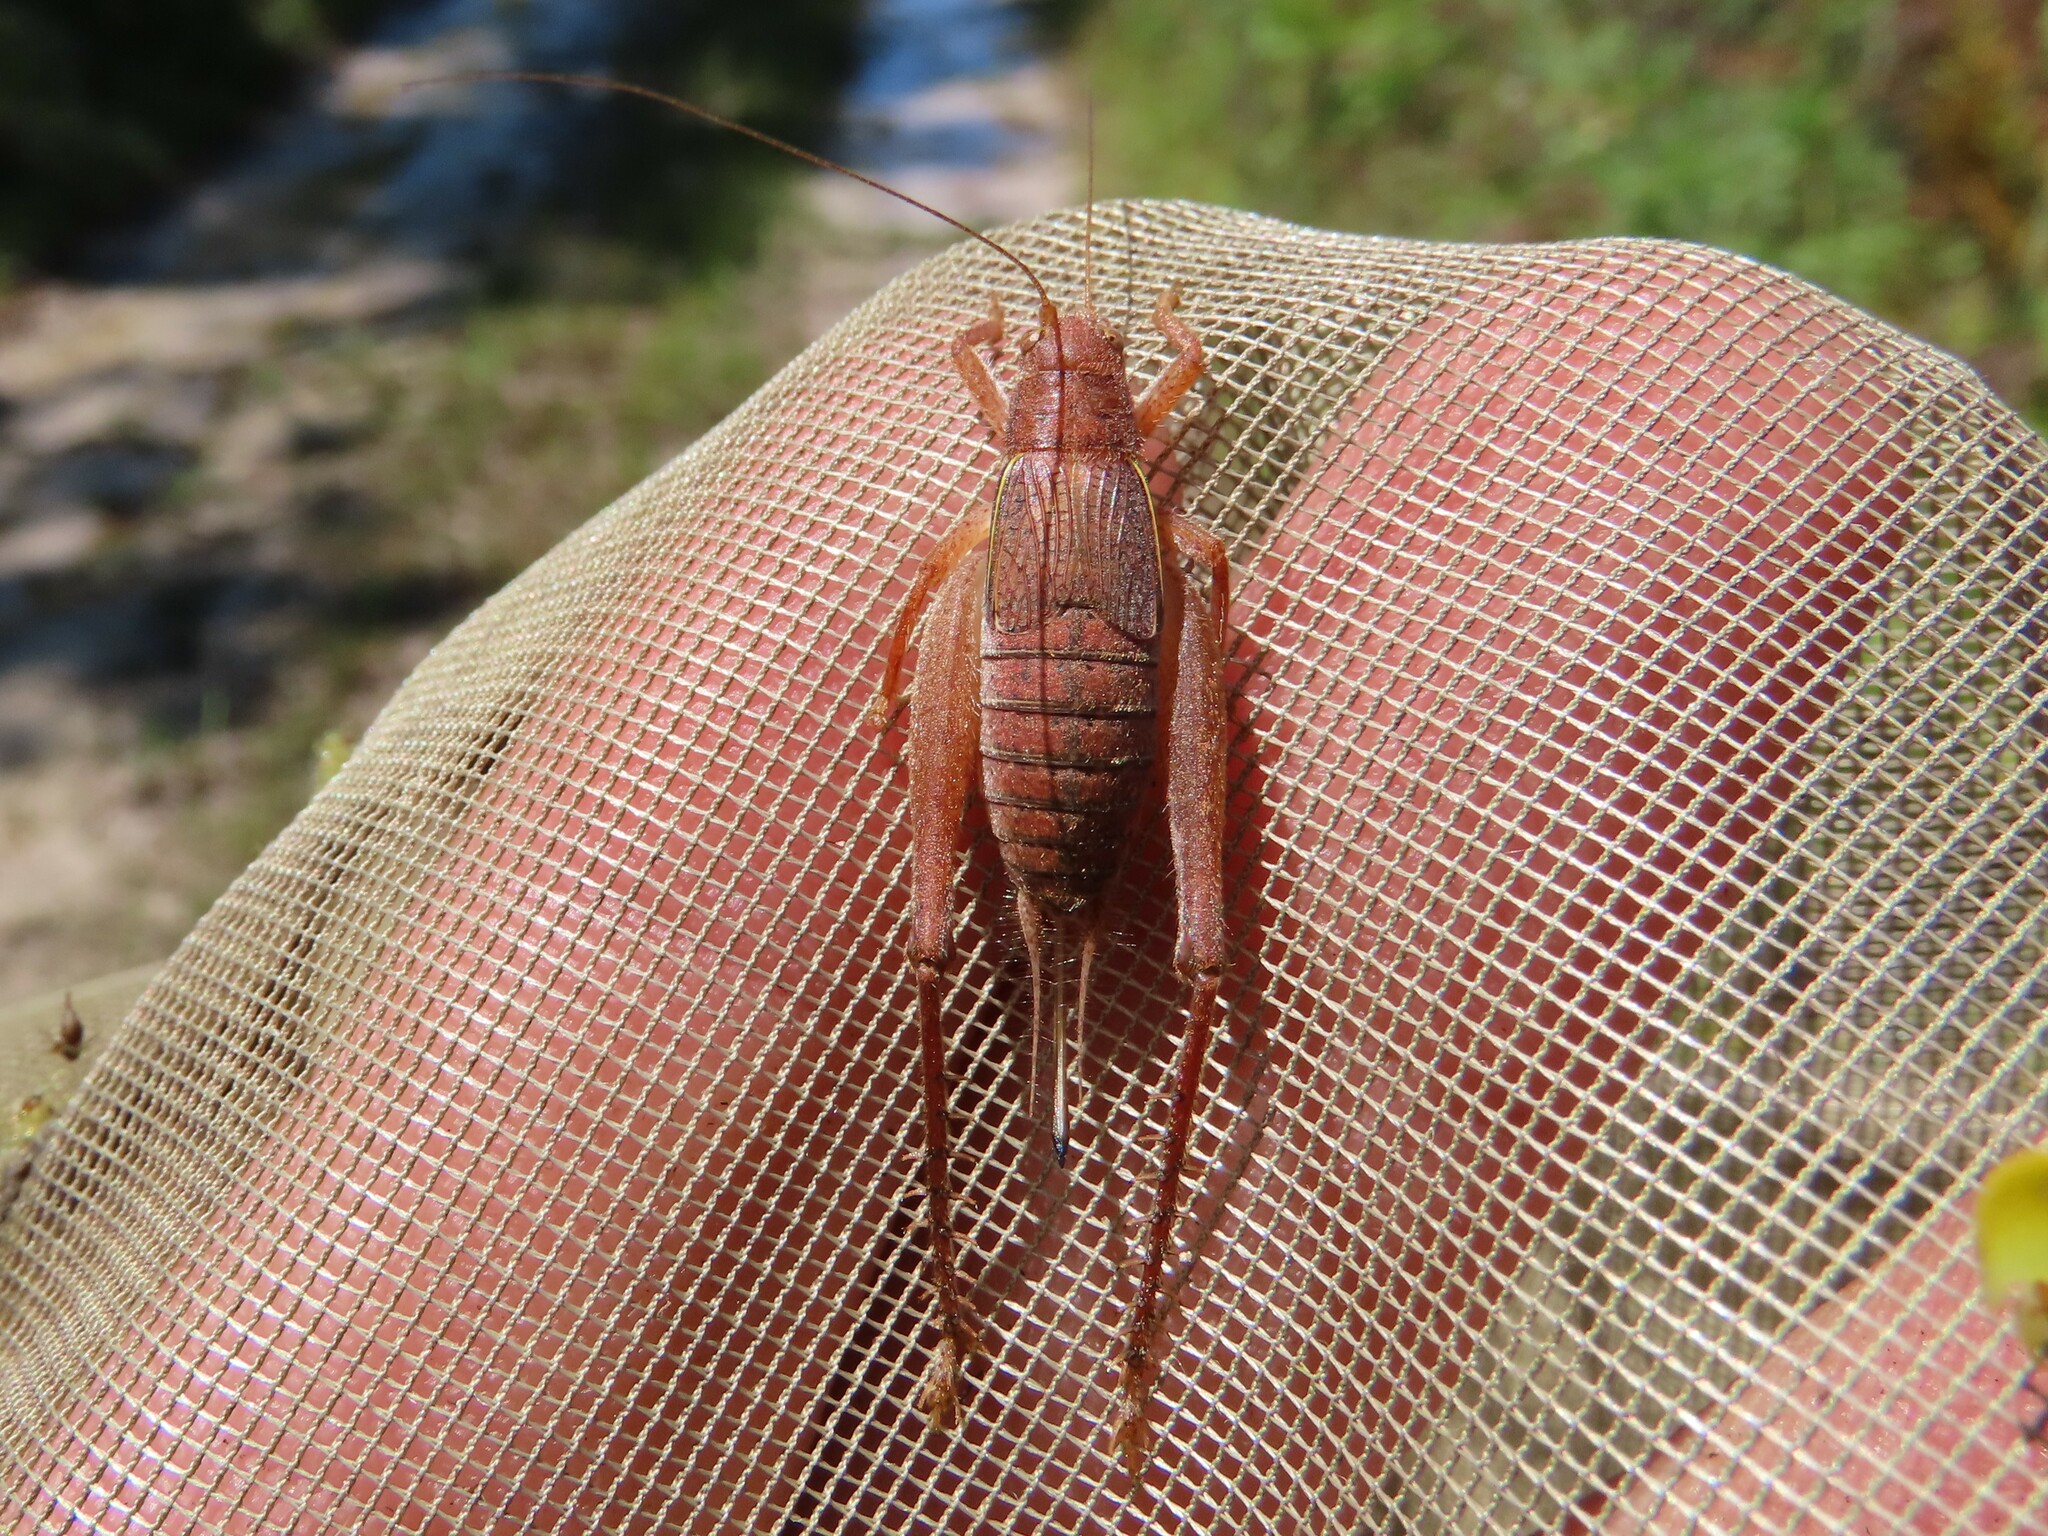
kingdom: Animalia
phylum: Arthropoda
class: Insecta
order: Orthoptera
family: Gryllidae
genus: Hapithus
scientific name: Hapithus brevipennis
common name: Short-winged bush cricket
